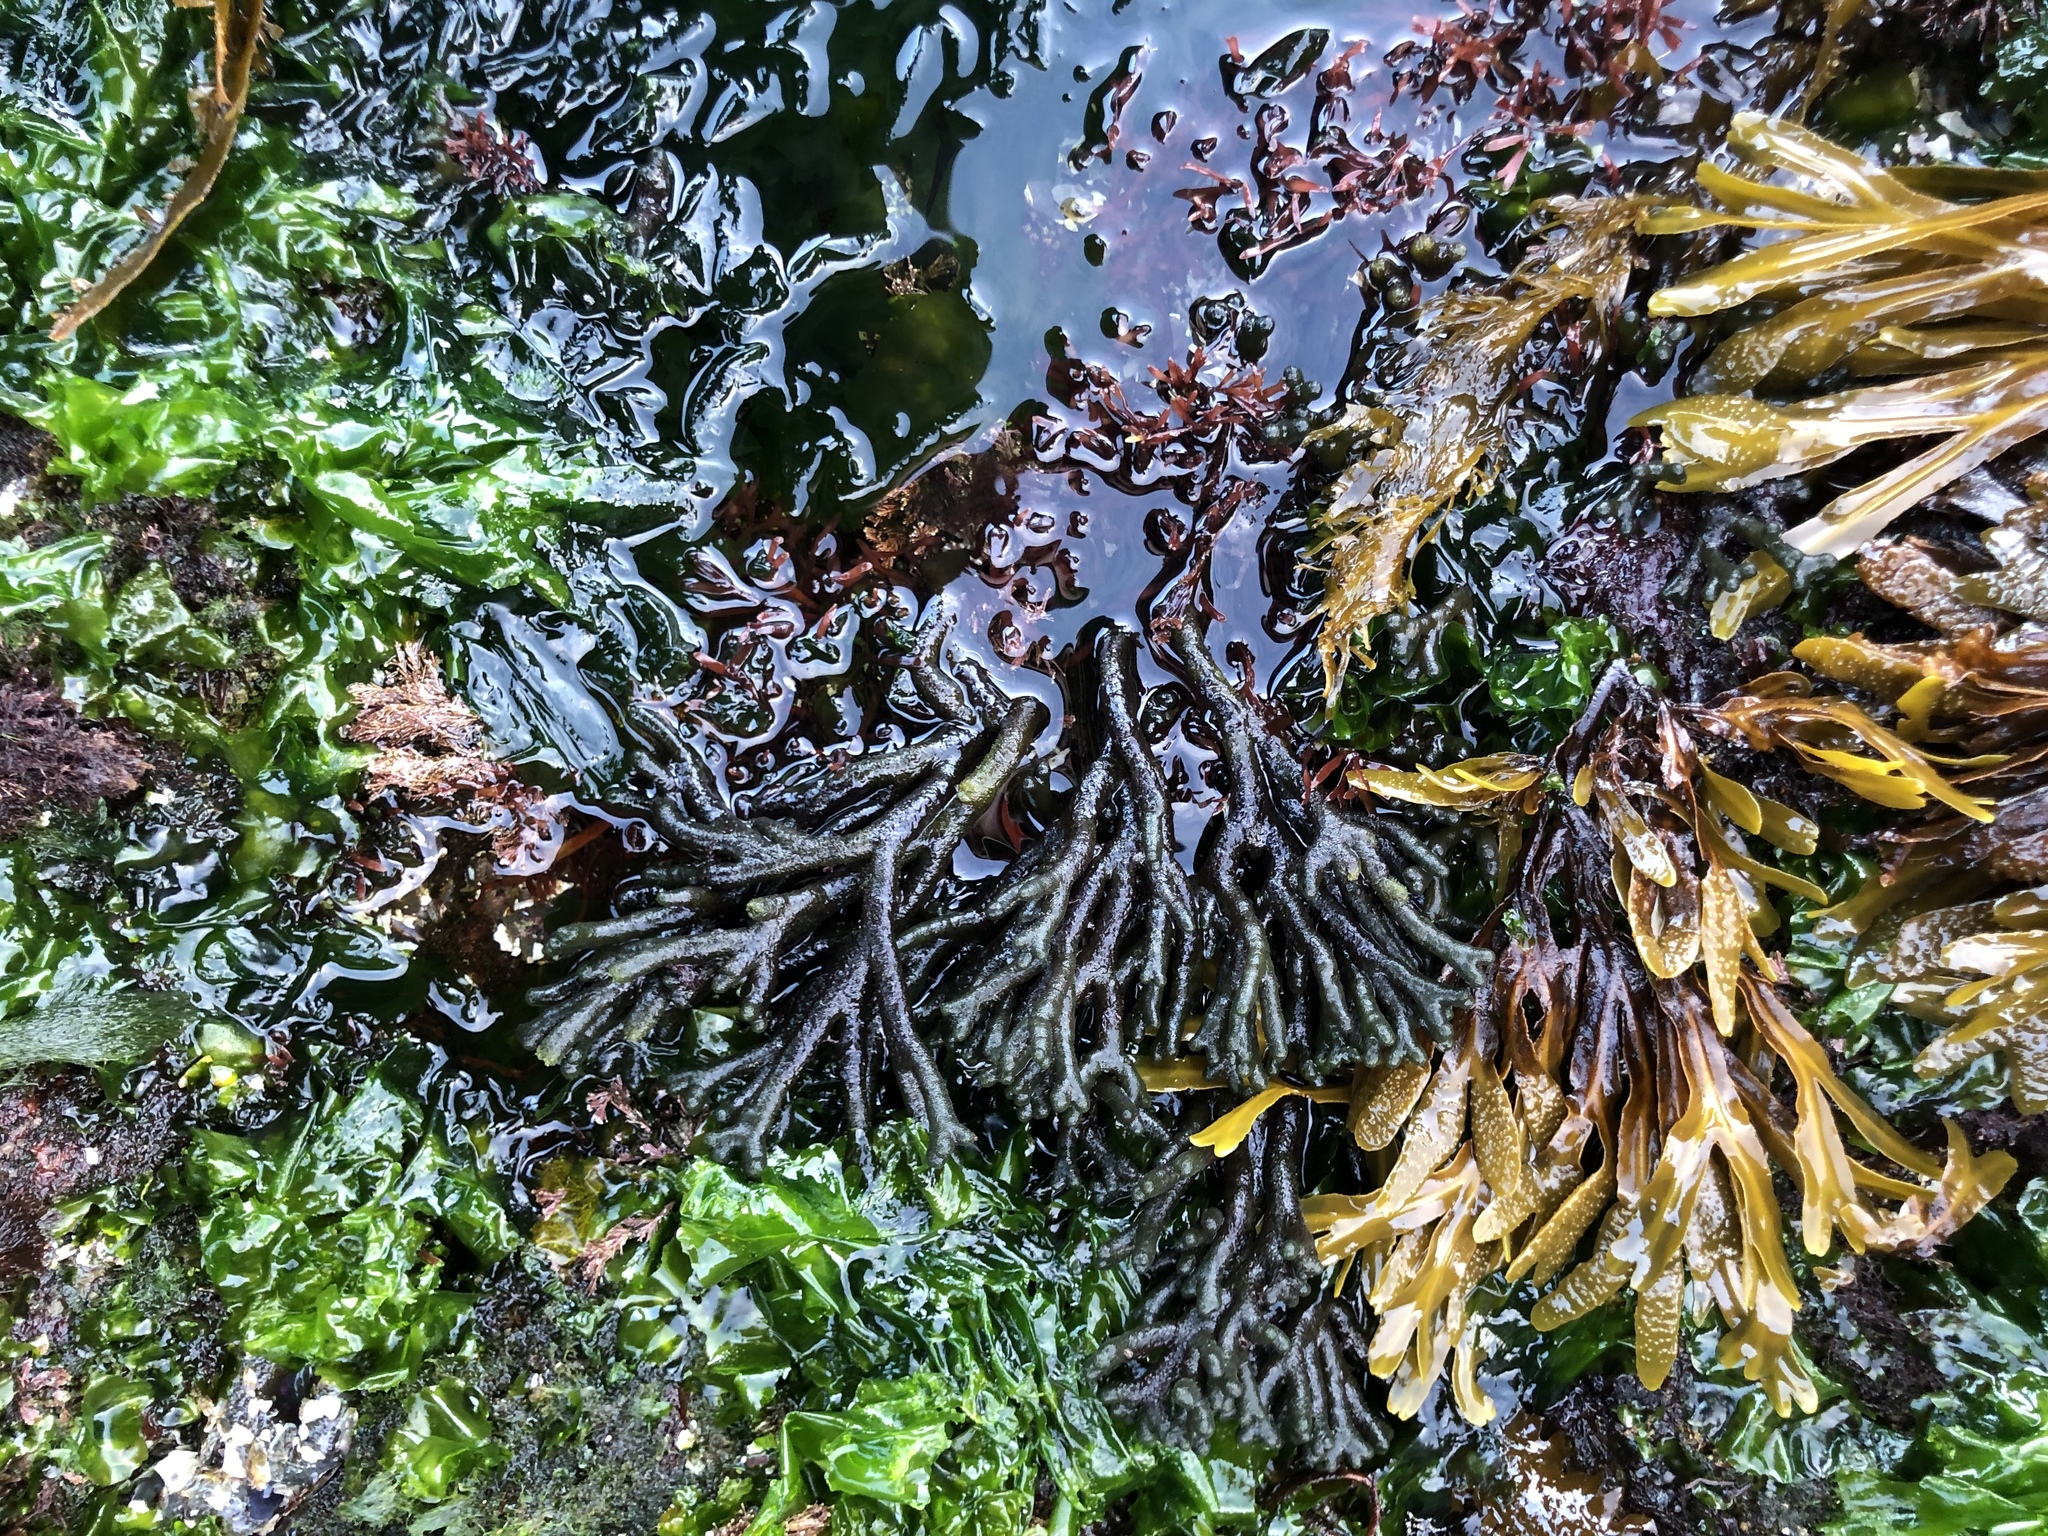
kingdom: Plantae
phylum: Chlorophyta
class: Ulvophyceae
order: Bryopsidales
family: Codiaceae
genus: Codium
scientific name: Codium fragile
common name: Dead man's fingers
